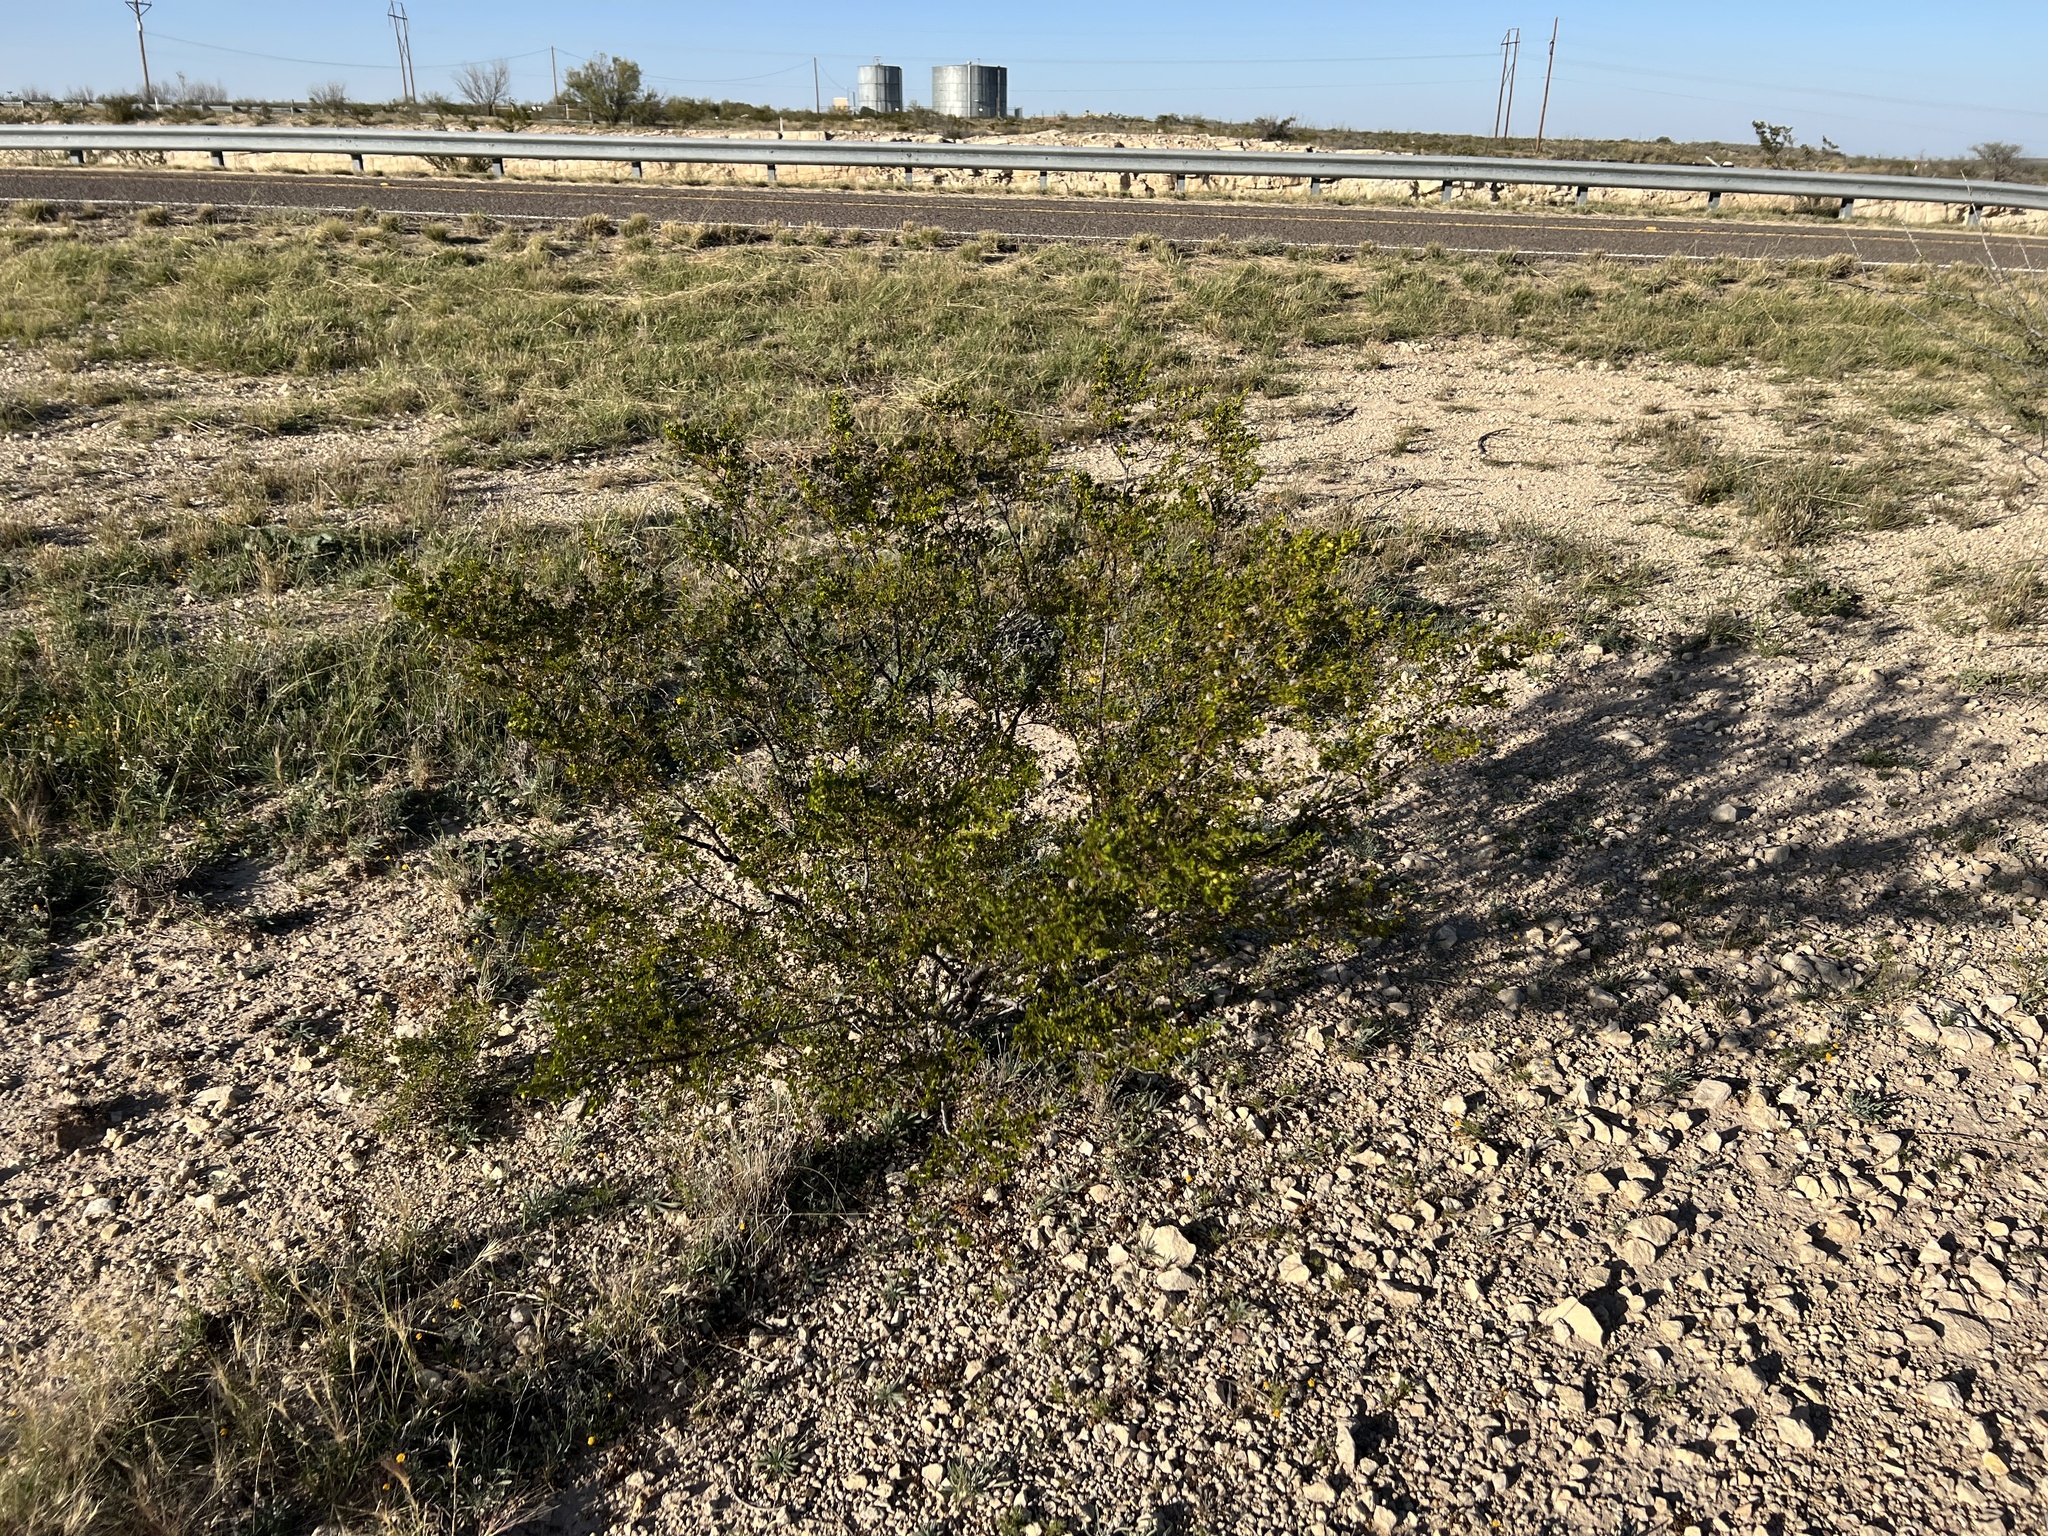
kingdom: Plantae
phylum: Tracheophyta
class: Magnoliopsida
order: Zygophyllales
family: Zygophyllaceae
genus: Larrea
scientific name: Larrea tridentata
